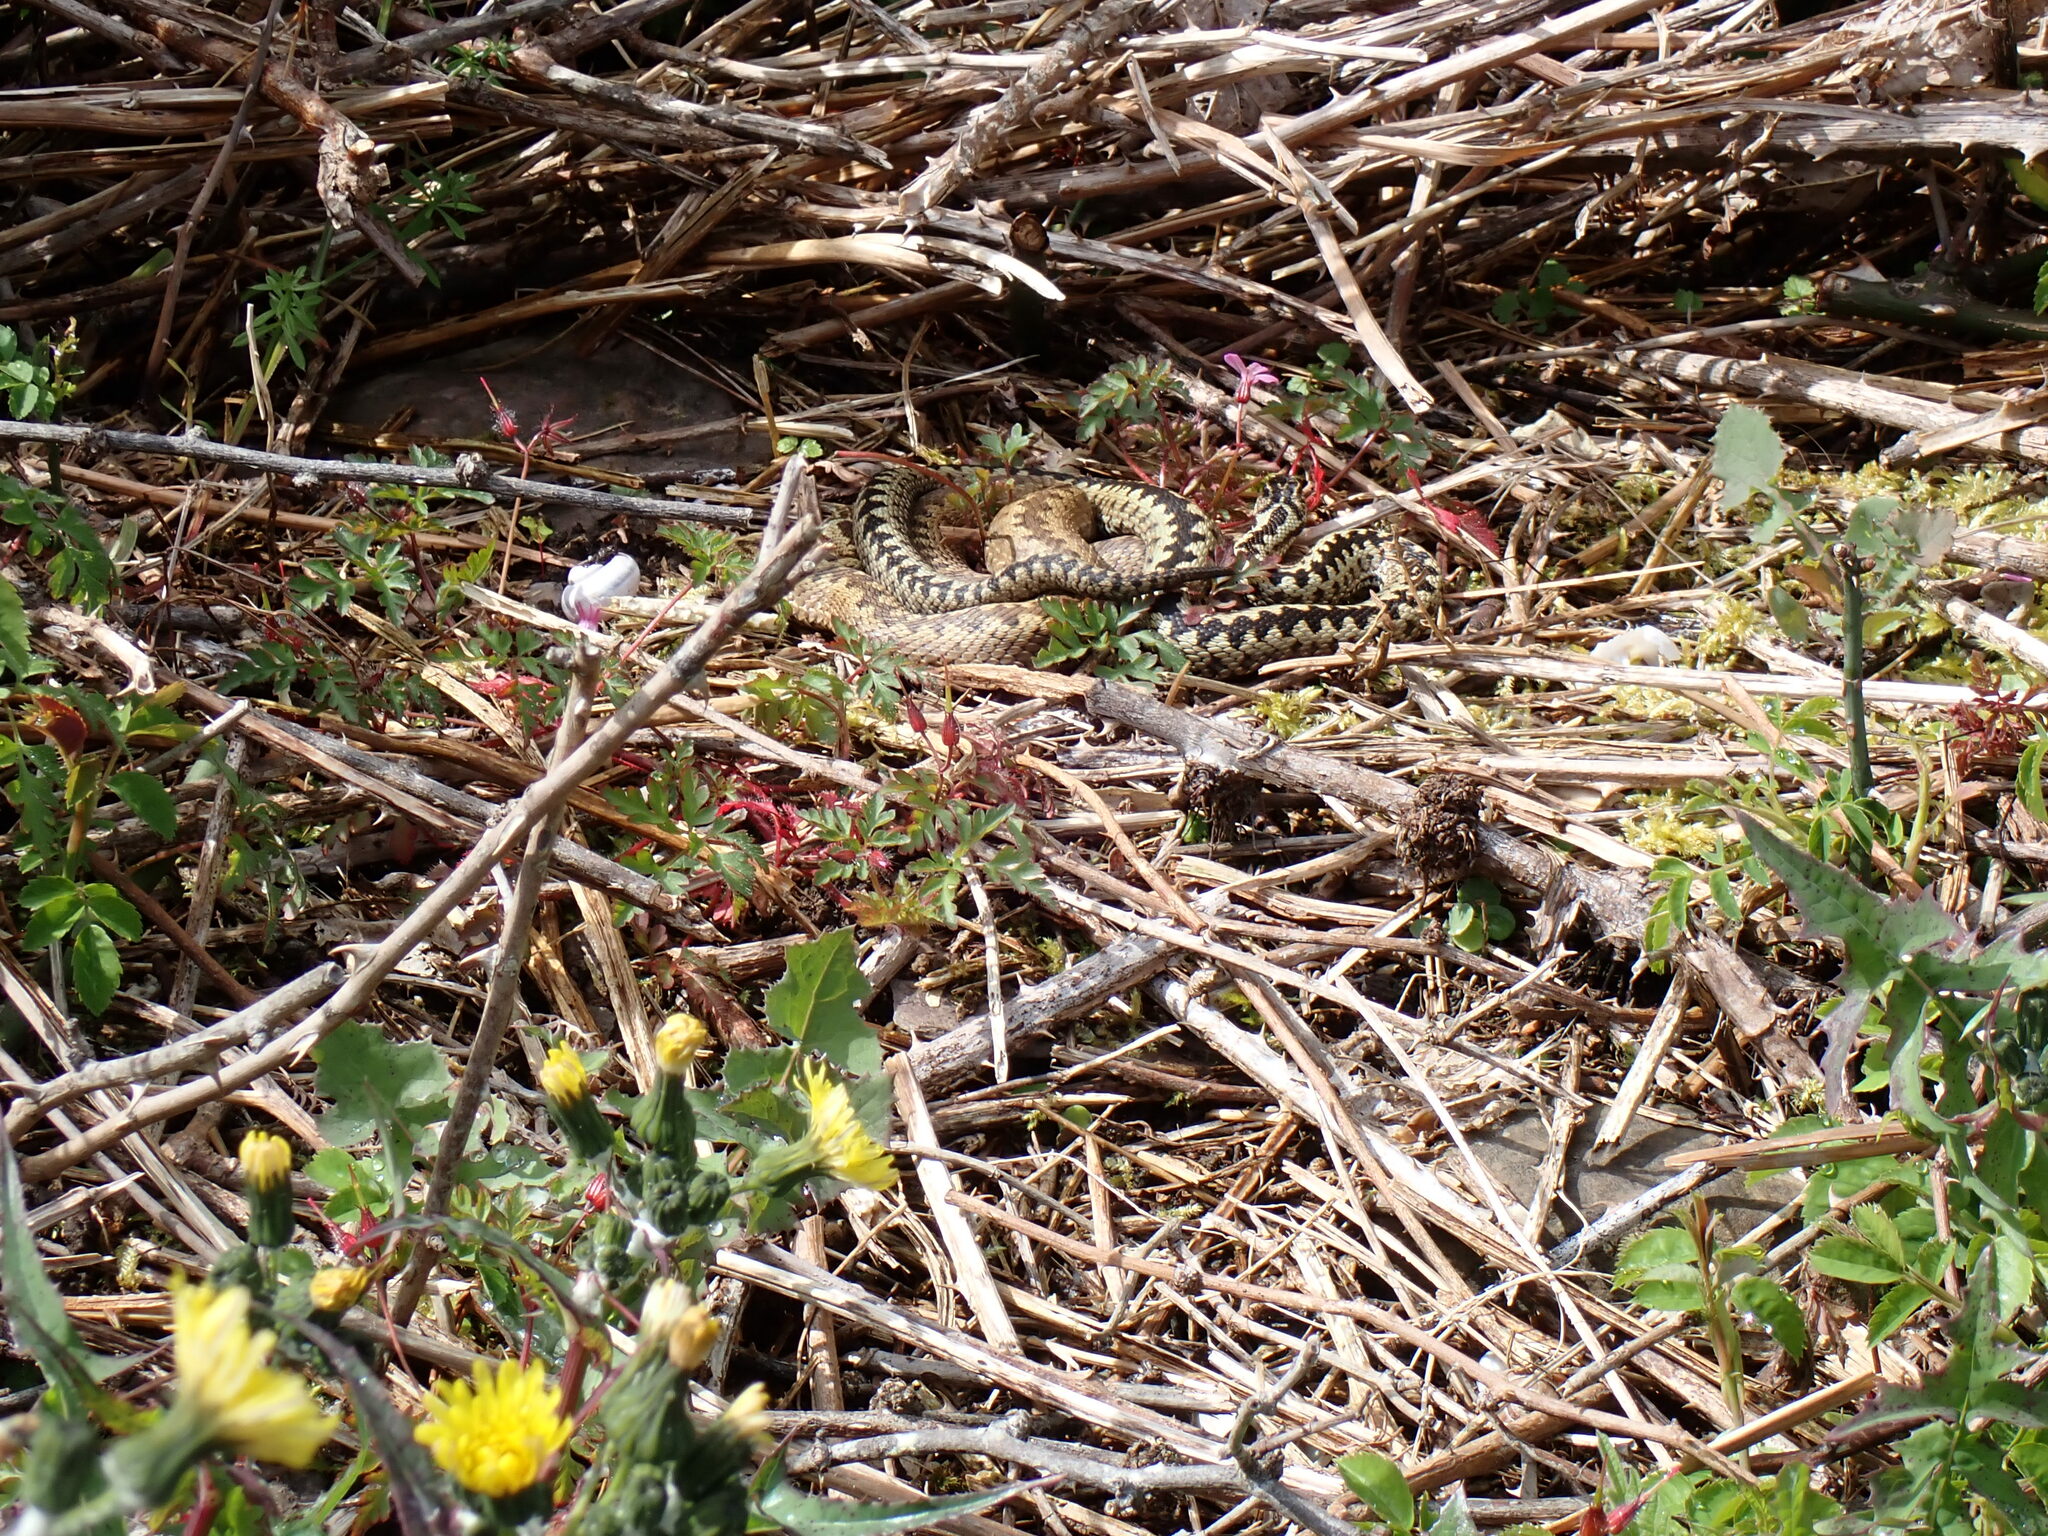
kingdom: Animalia
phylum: Chordata
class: Squamata
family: Viperidae
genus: Vipera
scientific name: Vipera berus
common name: Adder
